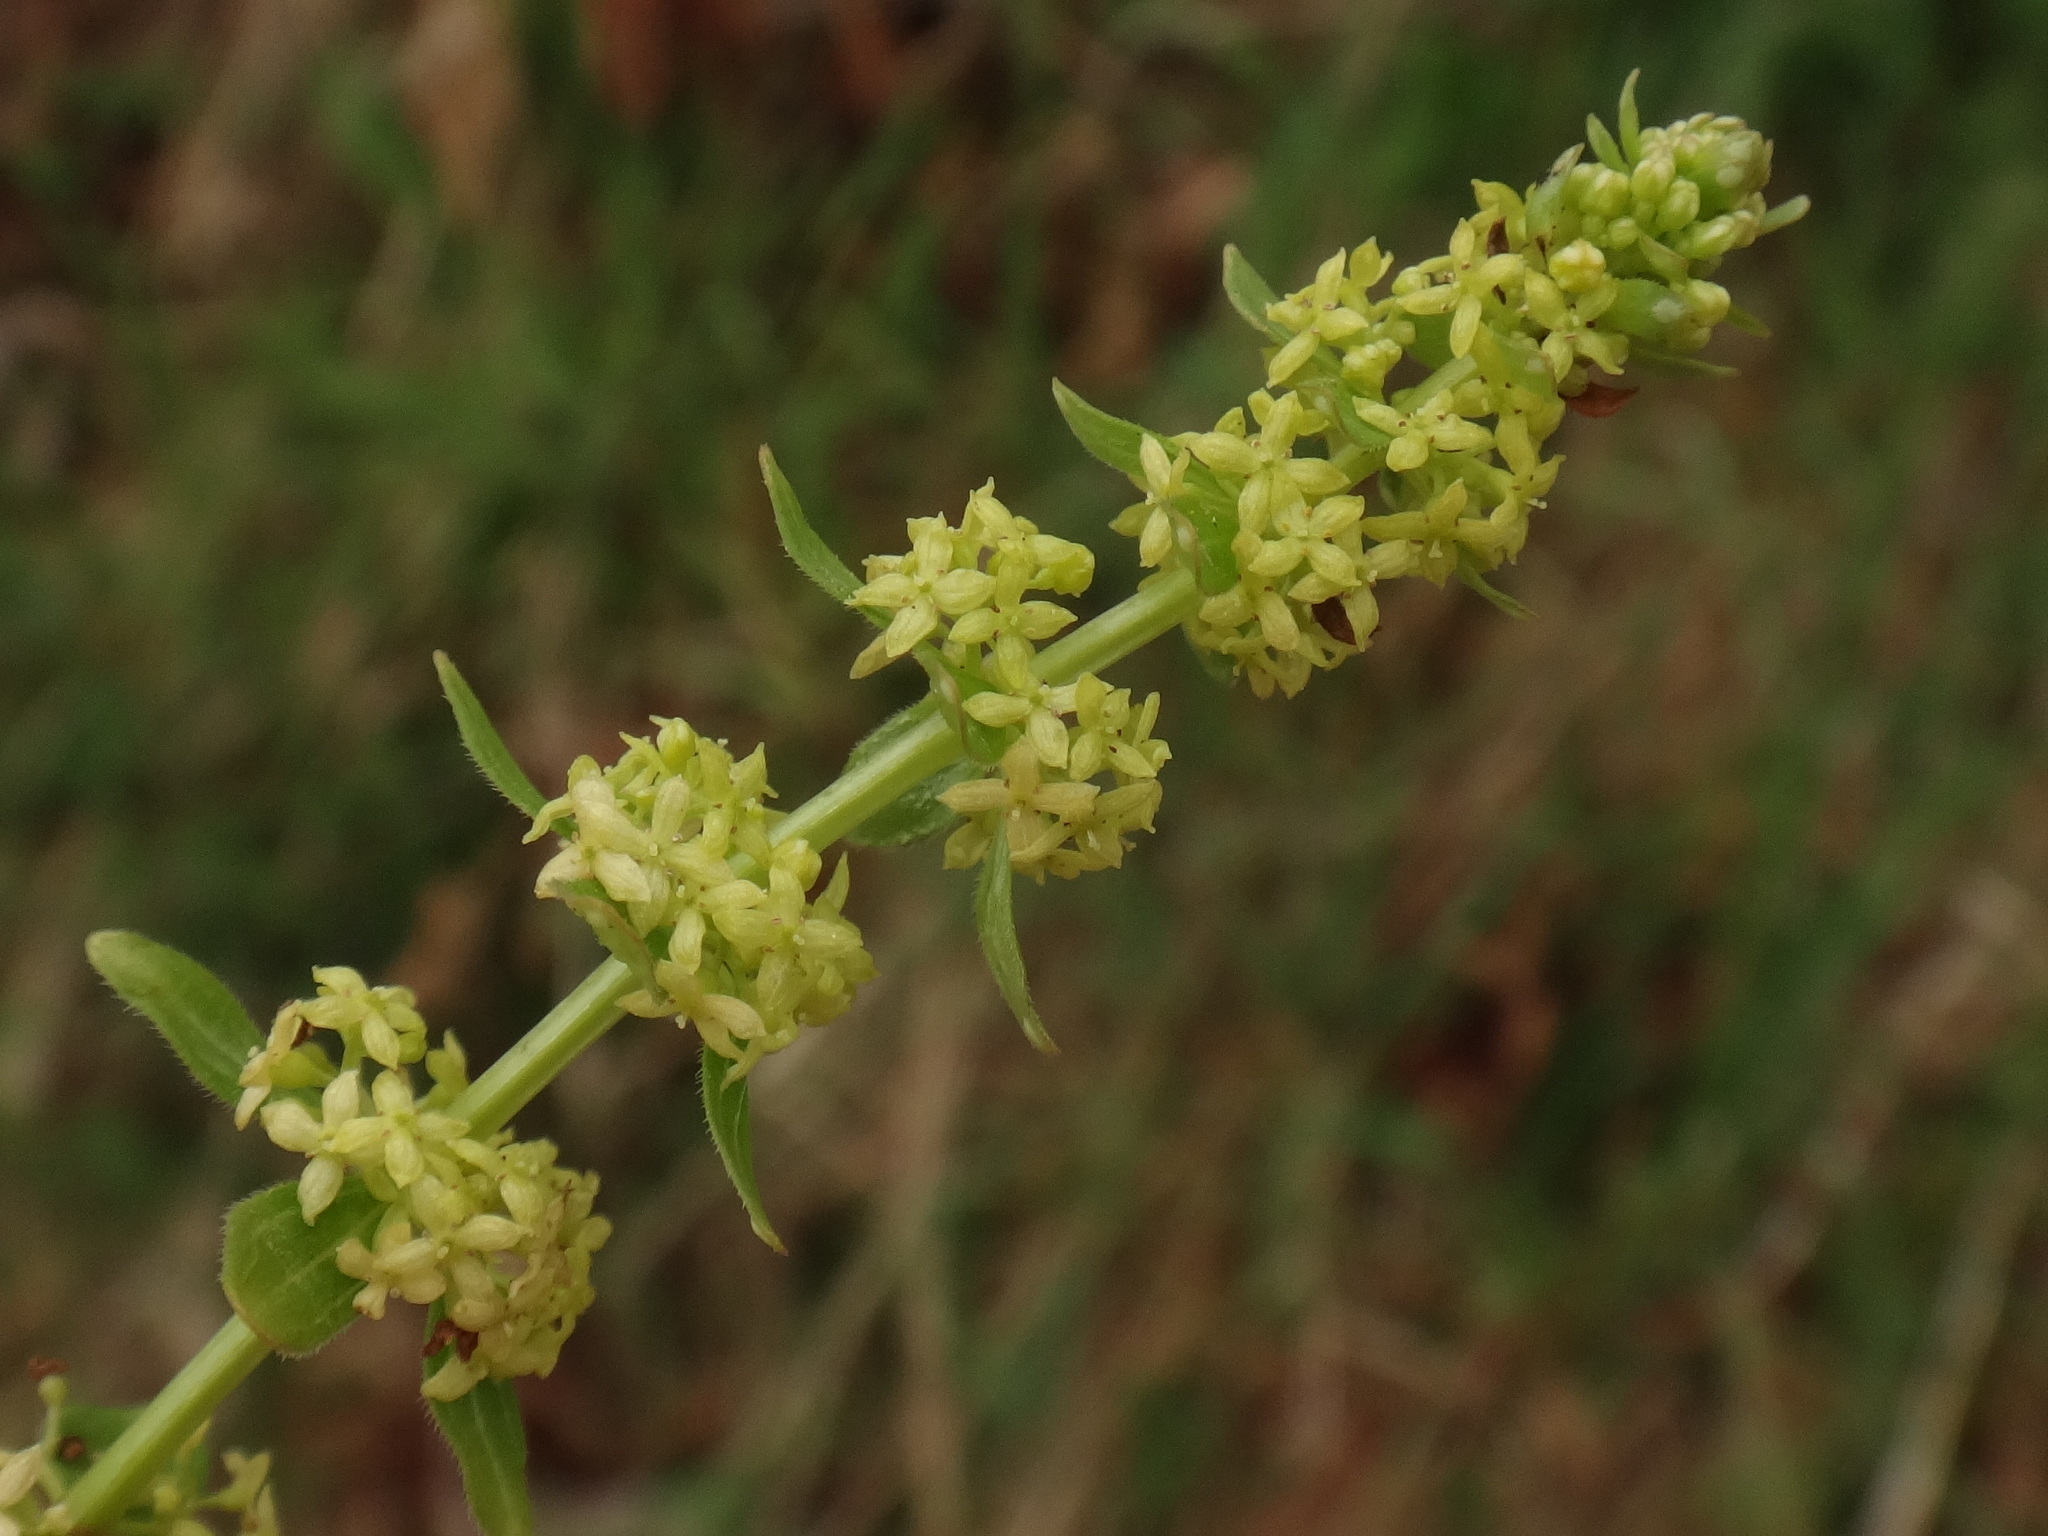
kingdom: Plantae
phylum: Tracheophyta
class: Magnoliopsida
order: Gentianales
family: Rubiaceae
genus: Cruciata
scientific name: Cruciata glabra
